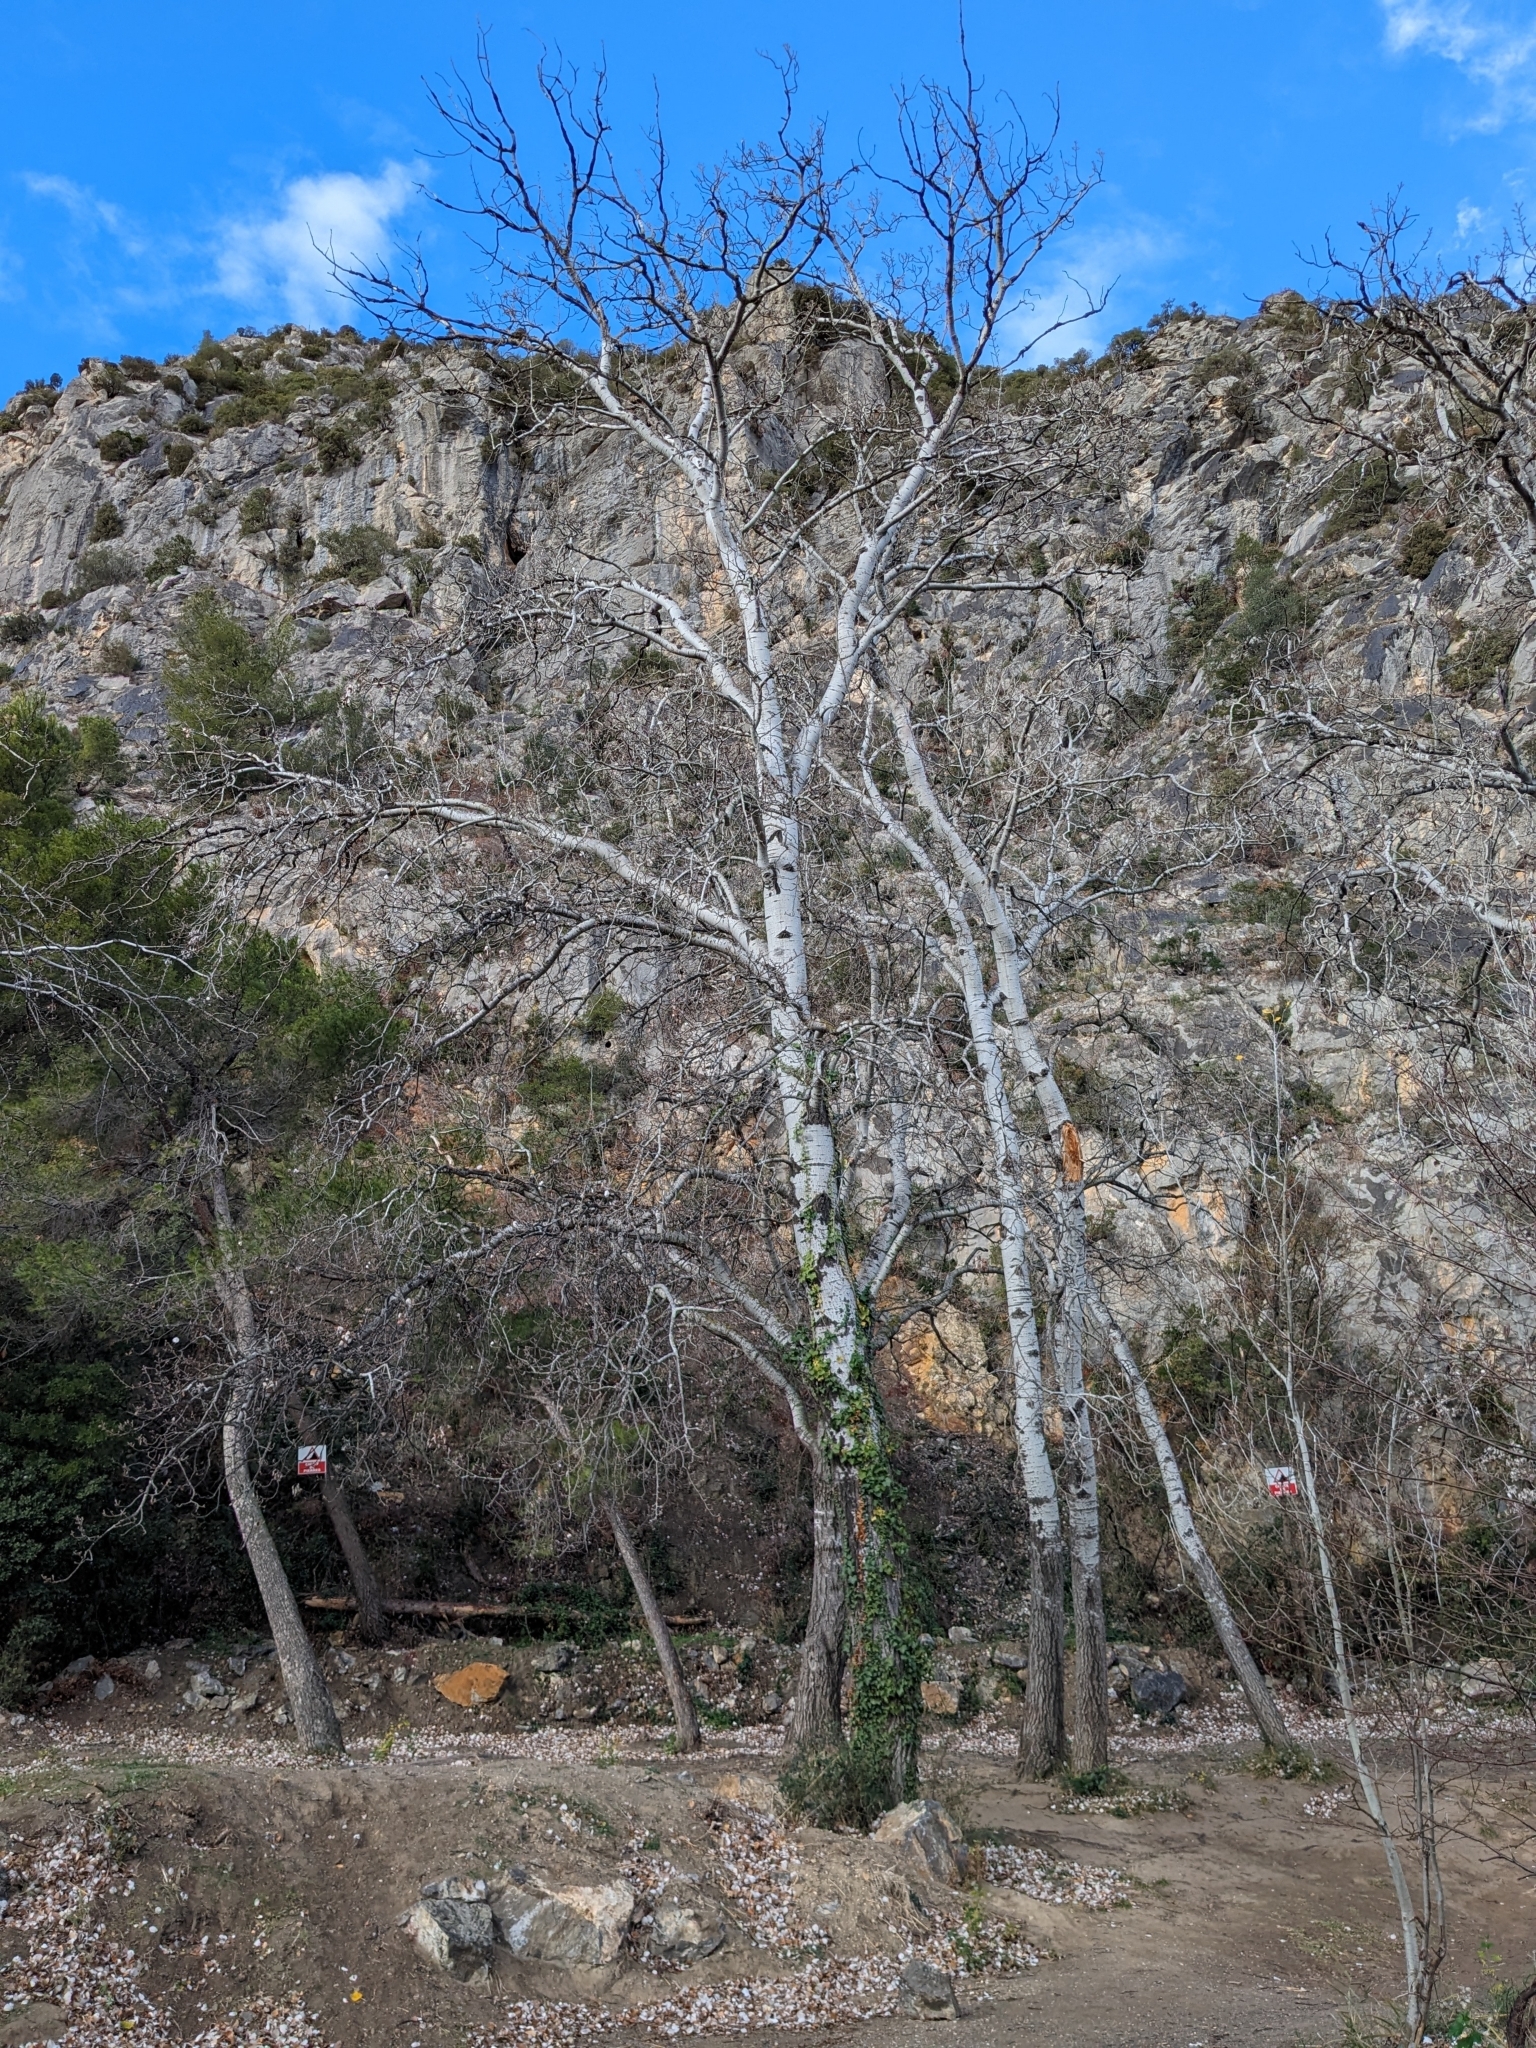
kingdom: Plantae
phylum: Tracheophyta
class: Magnoliopsida
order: Malpighiales
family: Salicaceae
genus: Populus
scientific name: Populus alba
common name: White poplar
